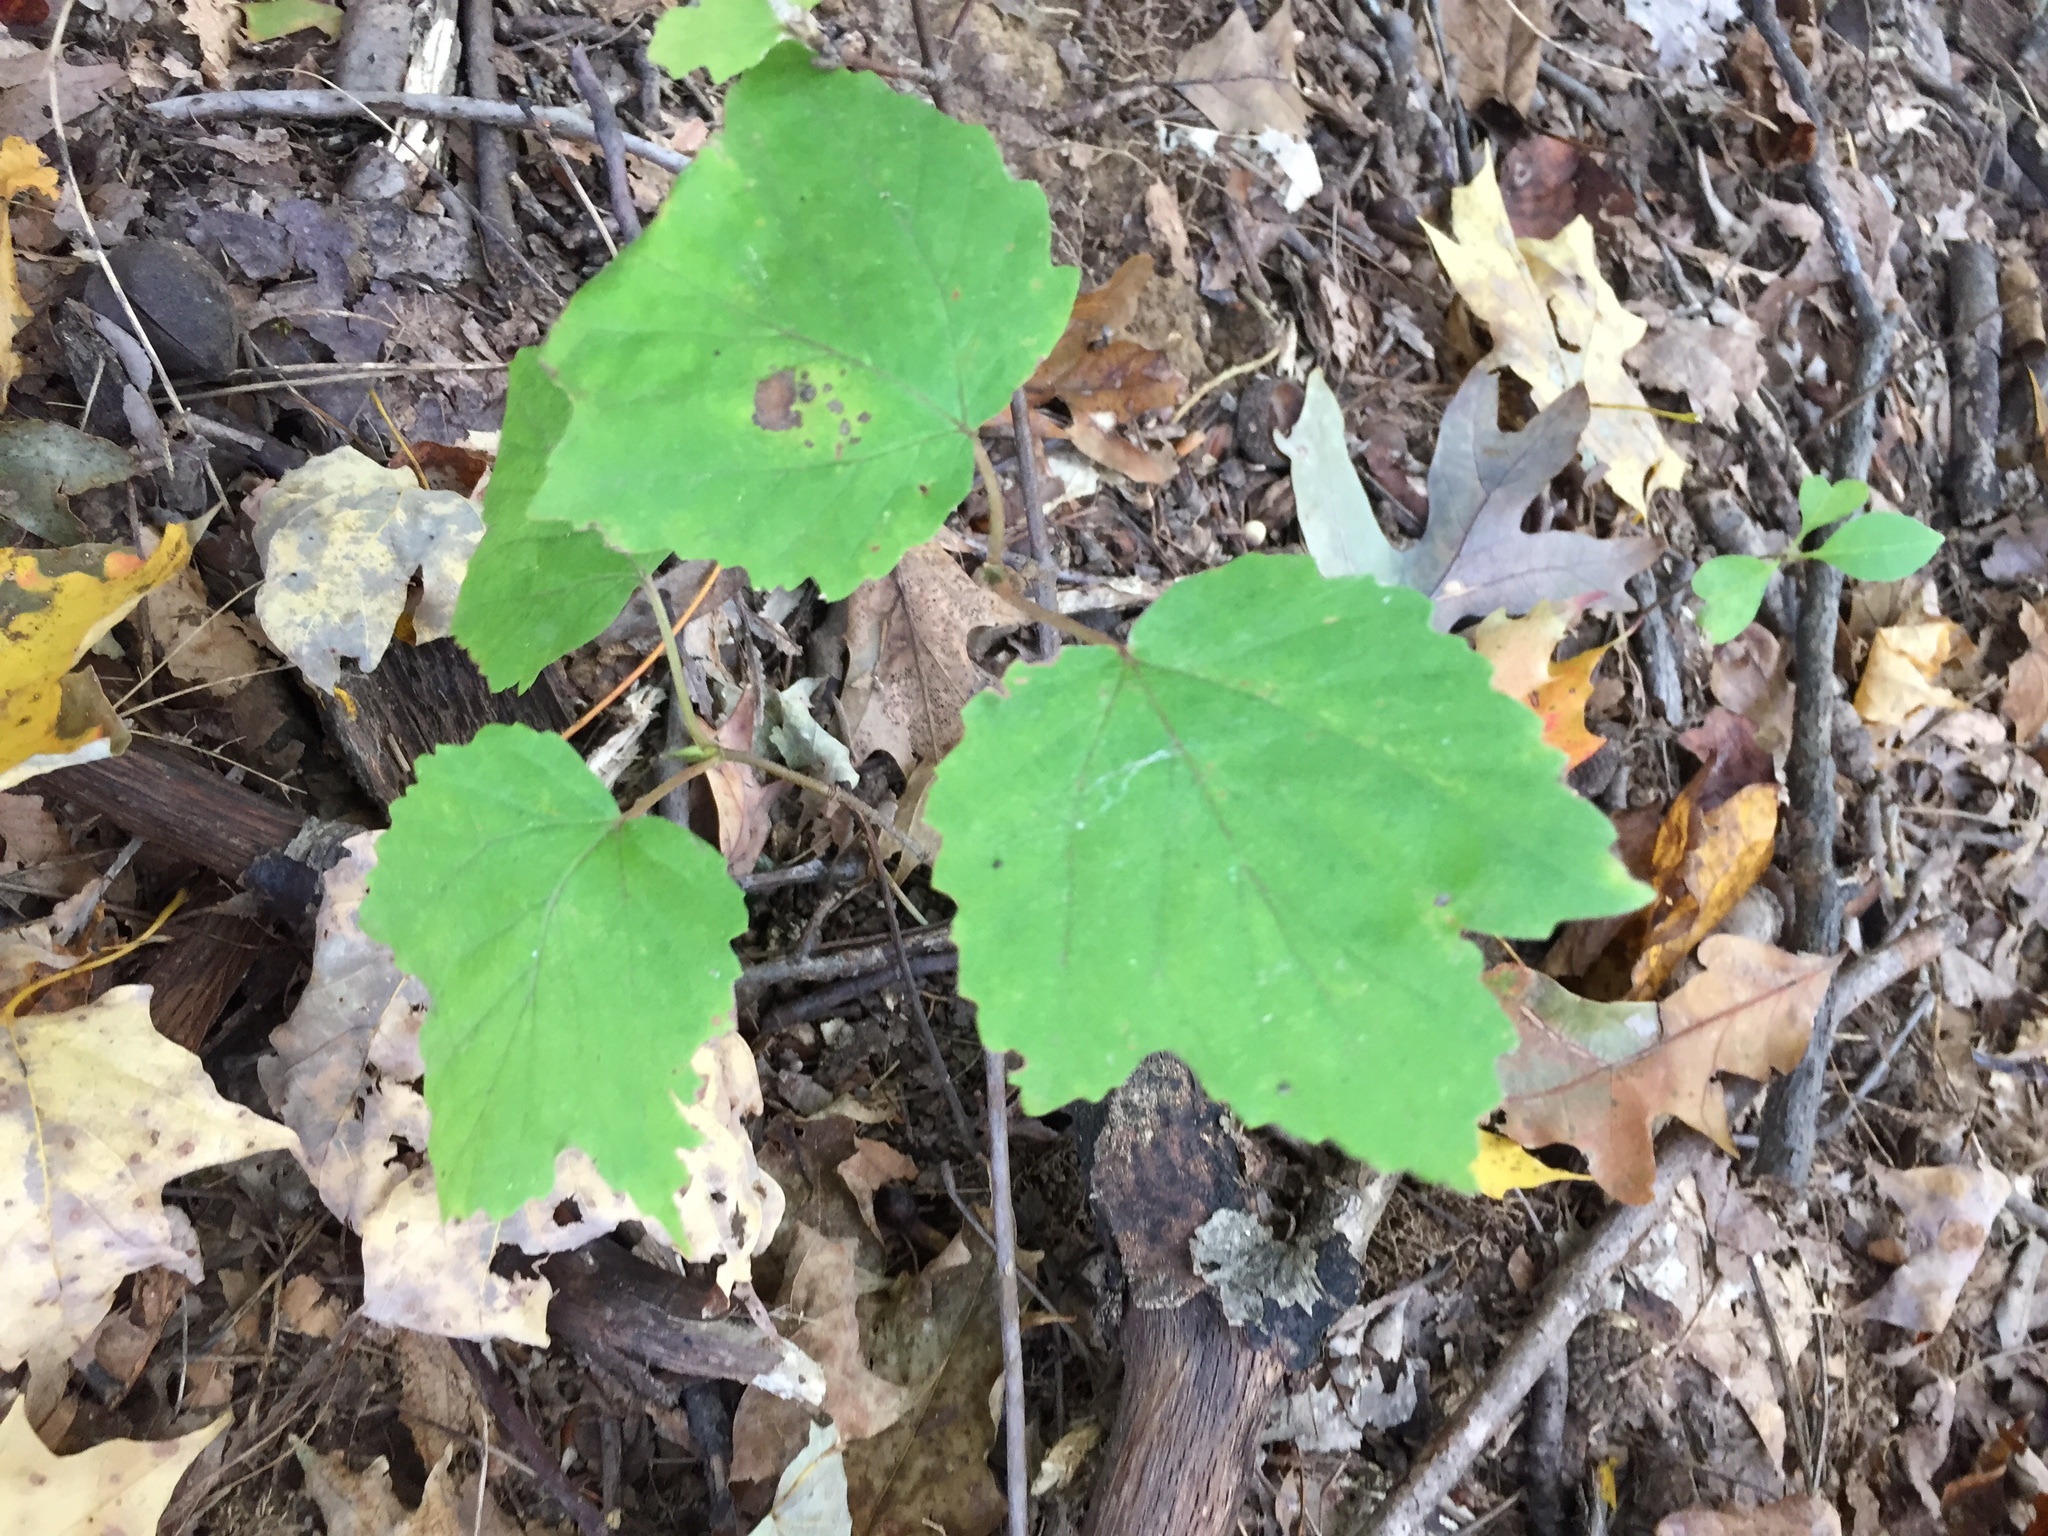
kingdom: Plantae
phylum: Tracheophyta
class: Magnoliopsida
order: Dipsacales
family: Viburnaceae
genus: Viburnum
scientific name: Viburnum acerifolium
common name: Dockmackie
